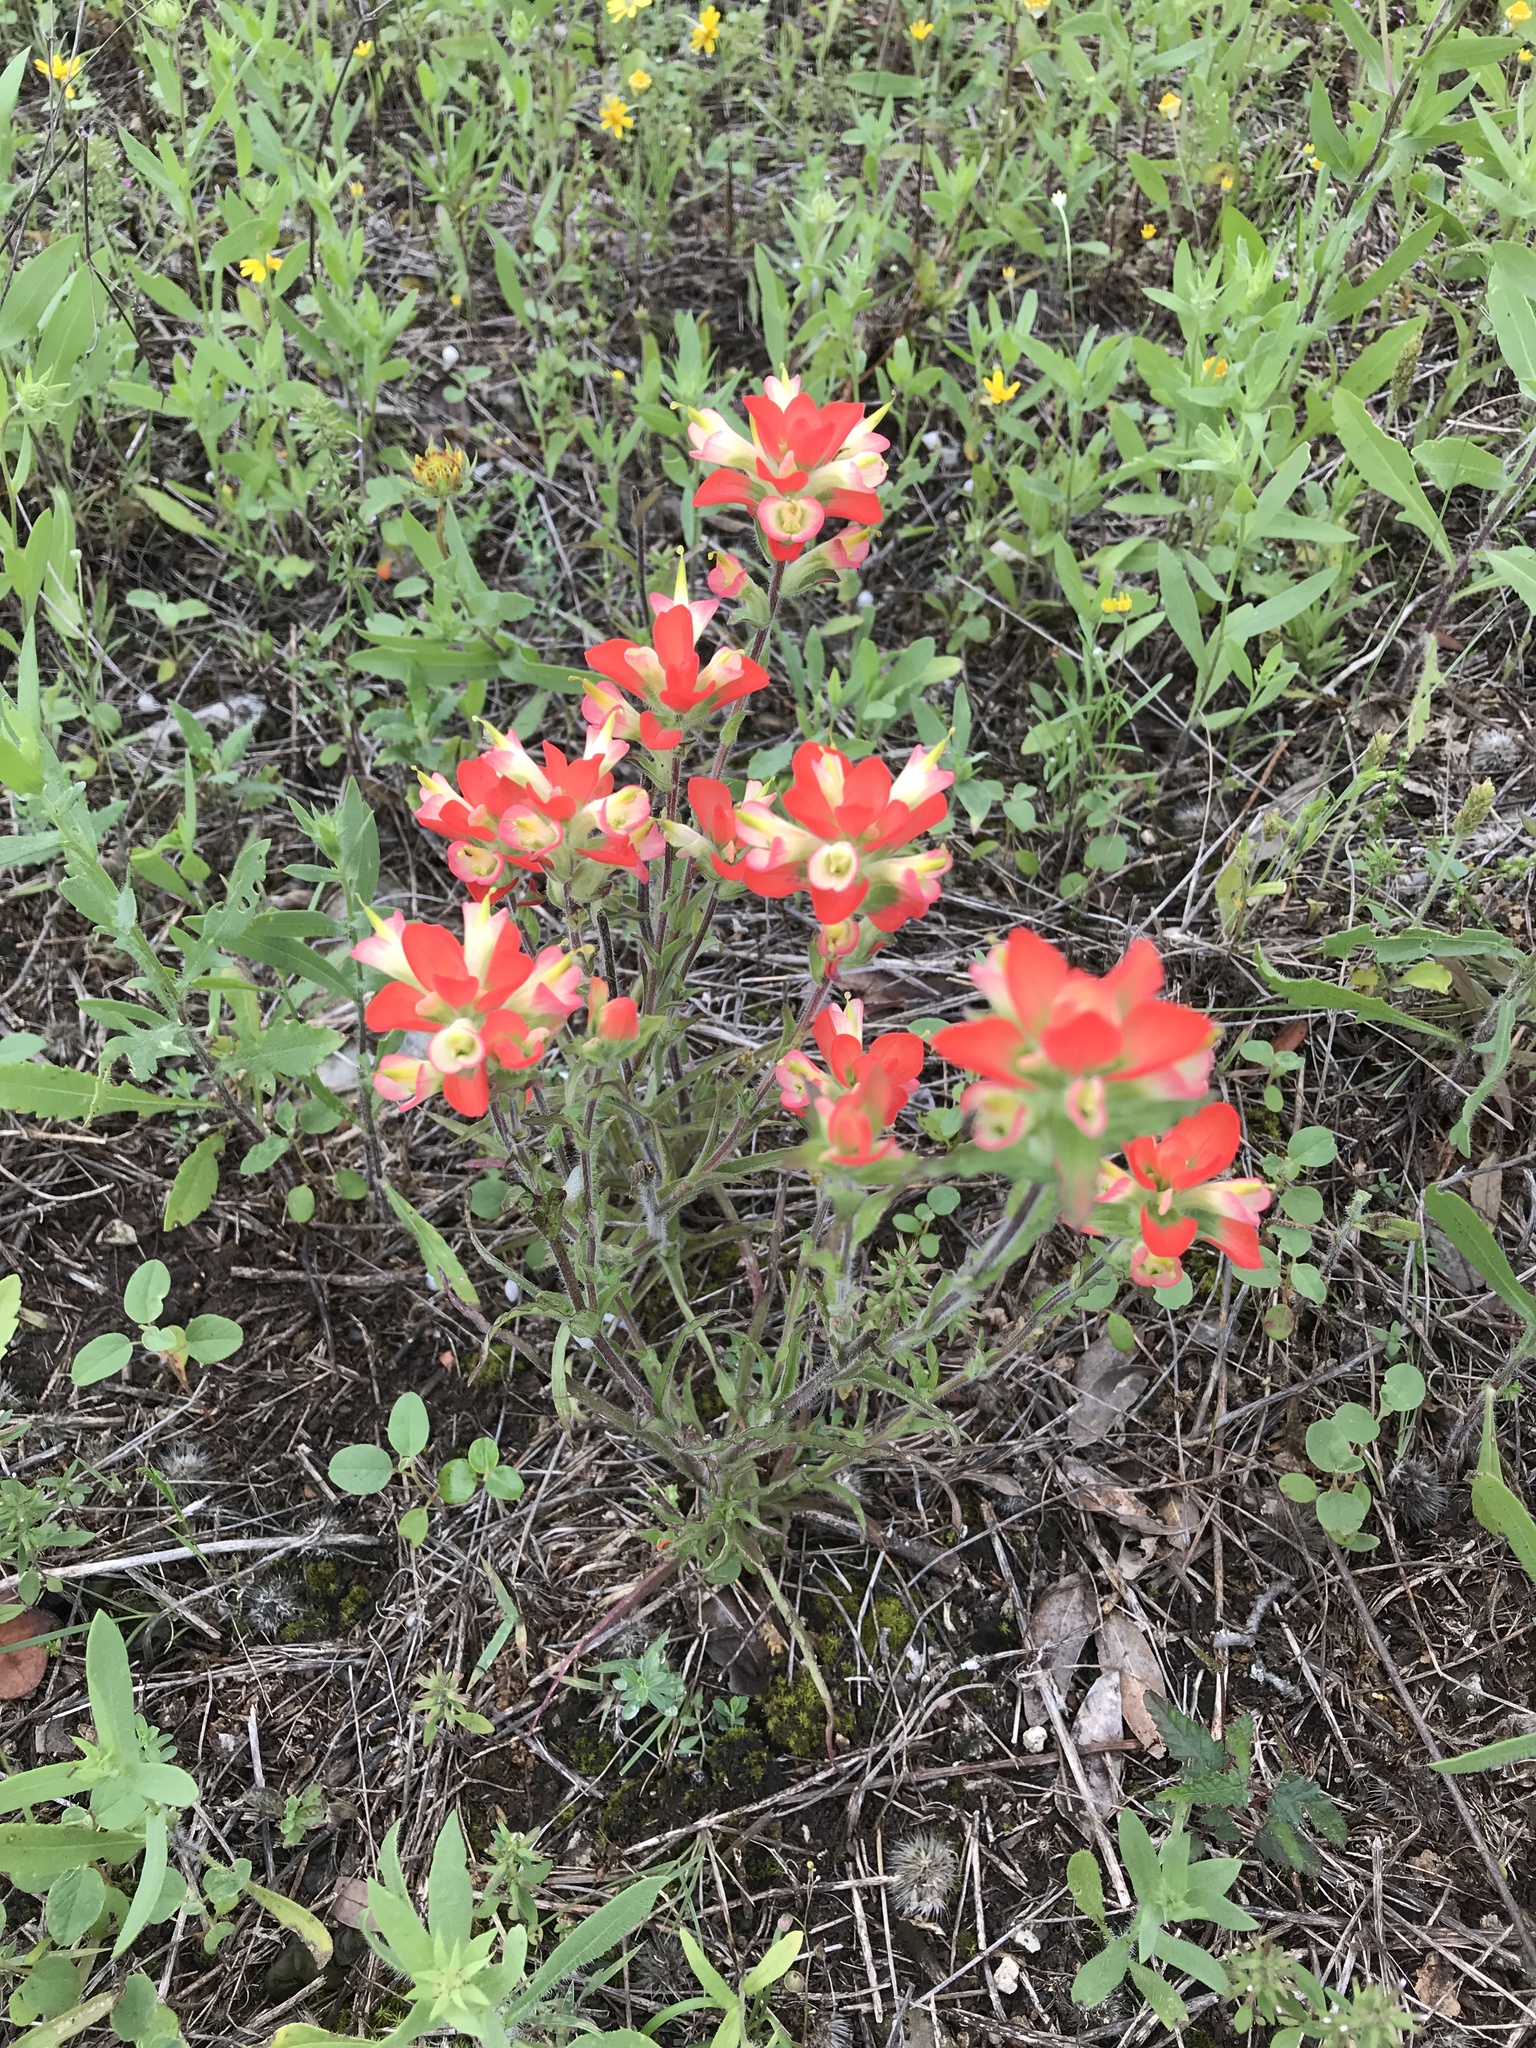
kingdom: Plantae
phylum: Tracheophyta
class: Magnoliopsida
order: Lamiales
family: Orobanchaceae
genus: Castilleja
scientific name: Castilleja indivisa
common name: Texas paintbrush
